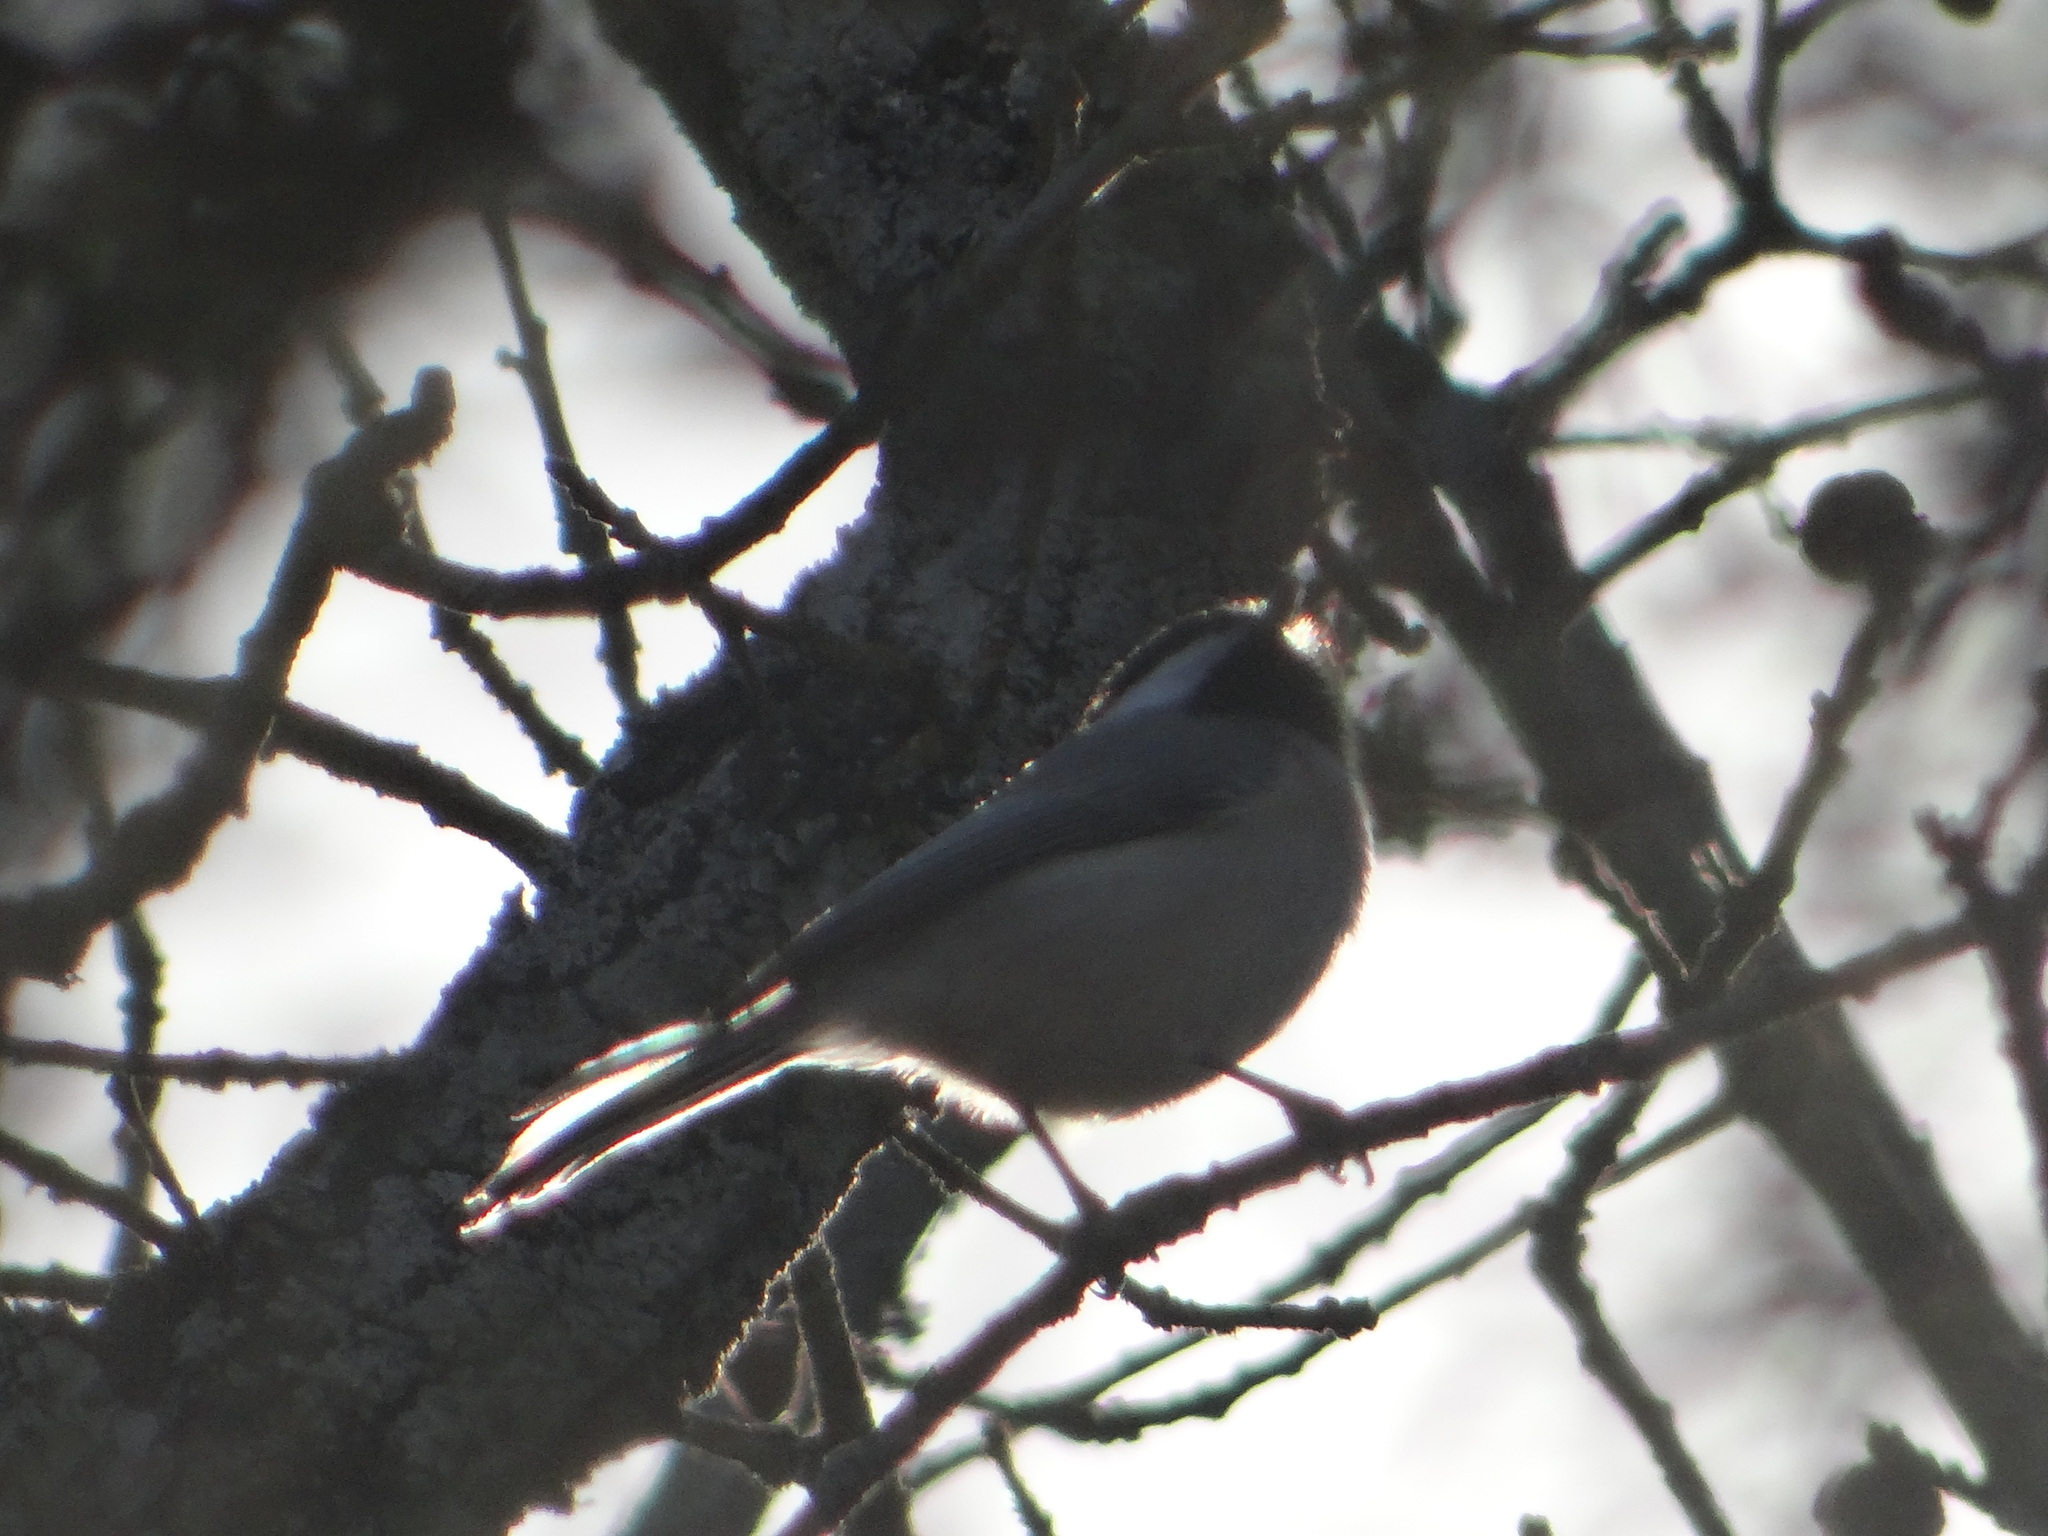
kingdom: Animalia
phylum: Chordata
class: Aves
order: Passeriformes
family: Paridae
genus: Poecile
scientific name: Poecile carolinensis
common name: Carolina chickadee
